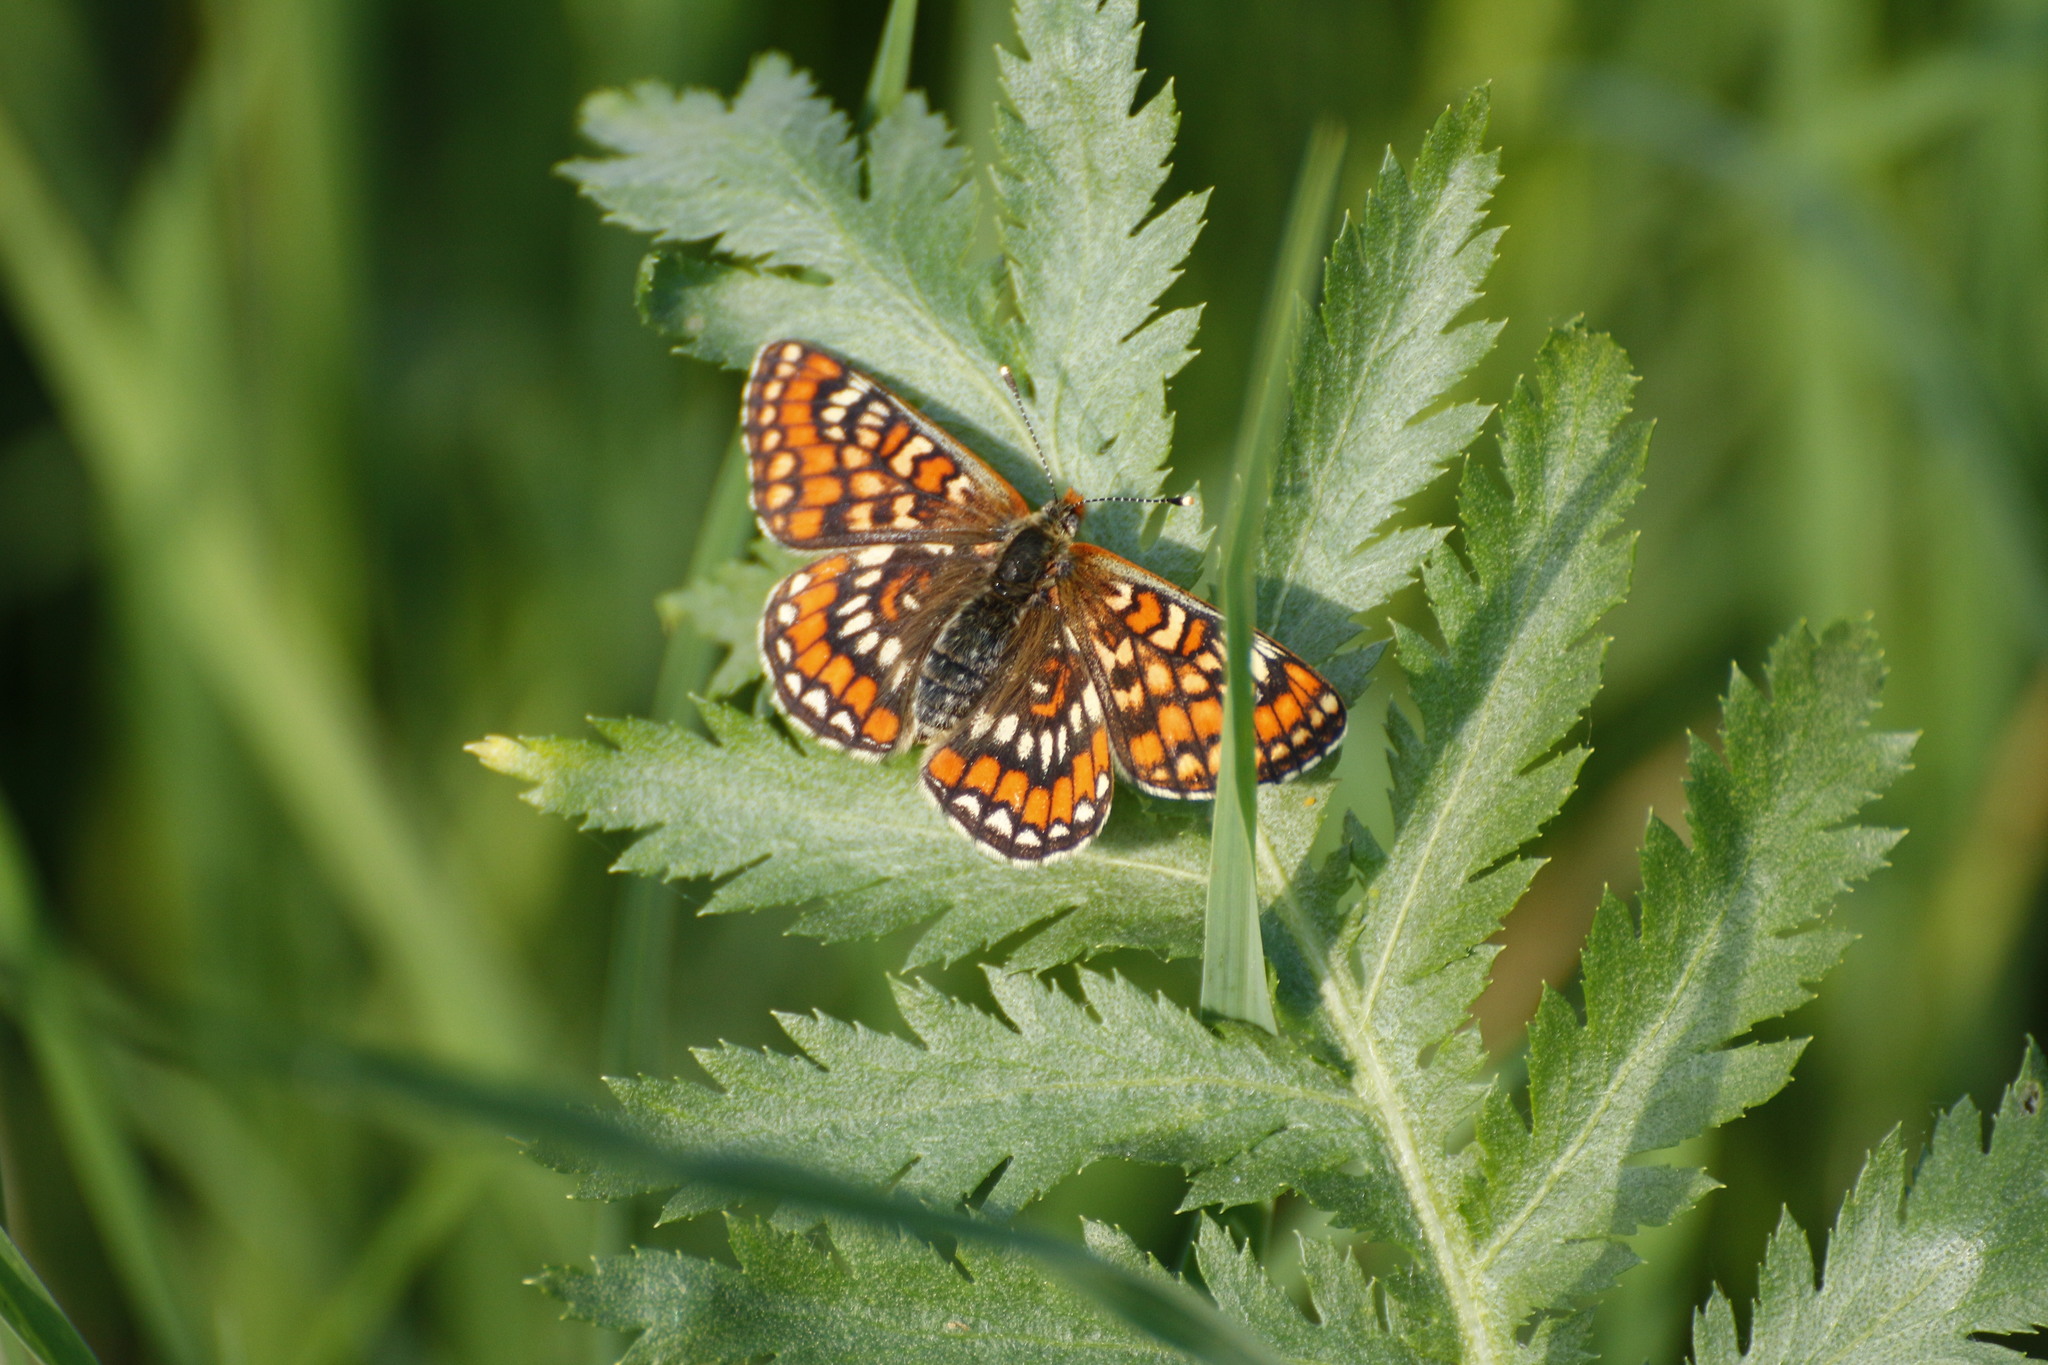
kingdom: Animalia
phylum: Arthropoda
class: Insecta
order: Lepidoptera
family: Nymphalidae
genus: Euphydryas
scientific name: Euphydryas maturna
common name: Scarce fritillary
